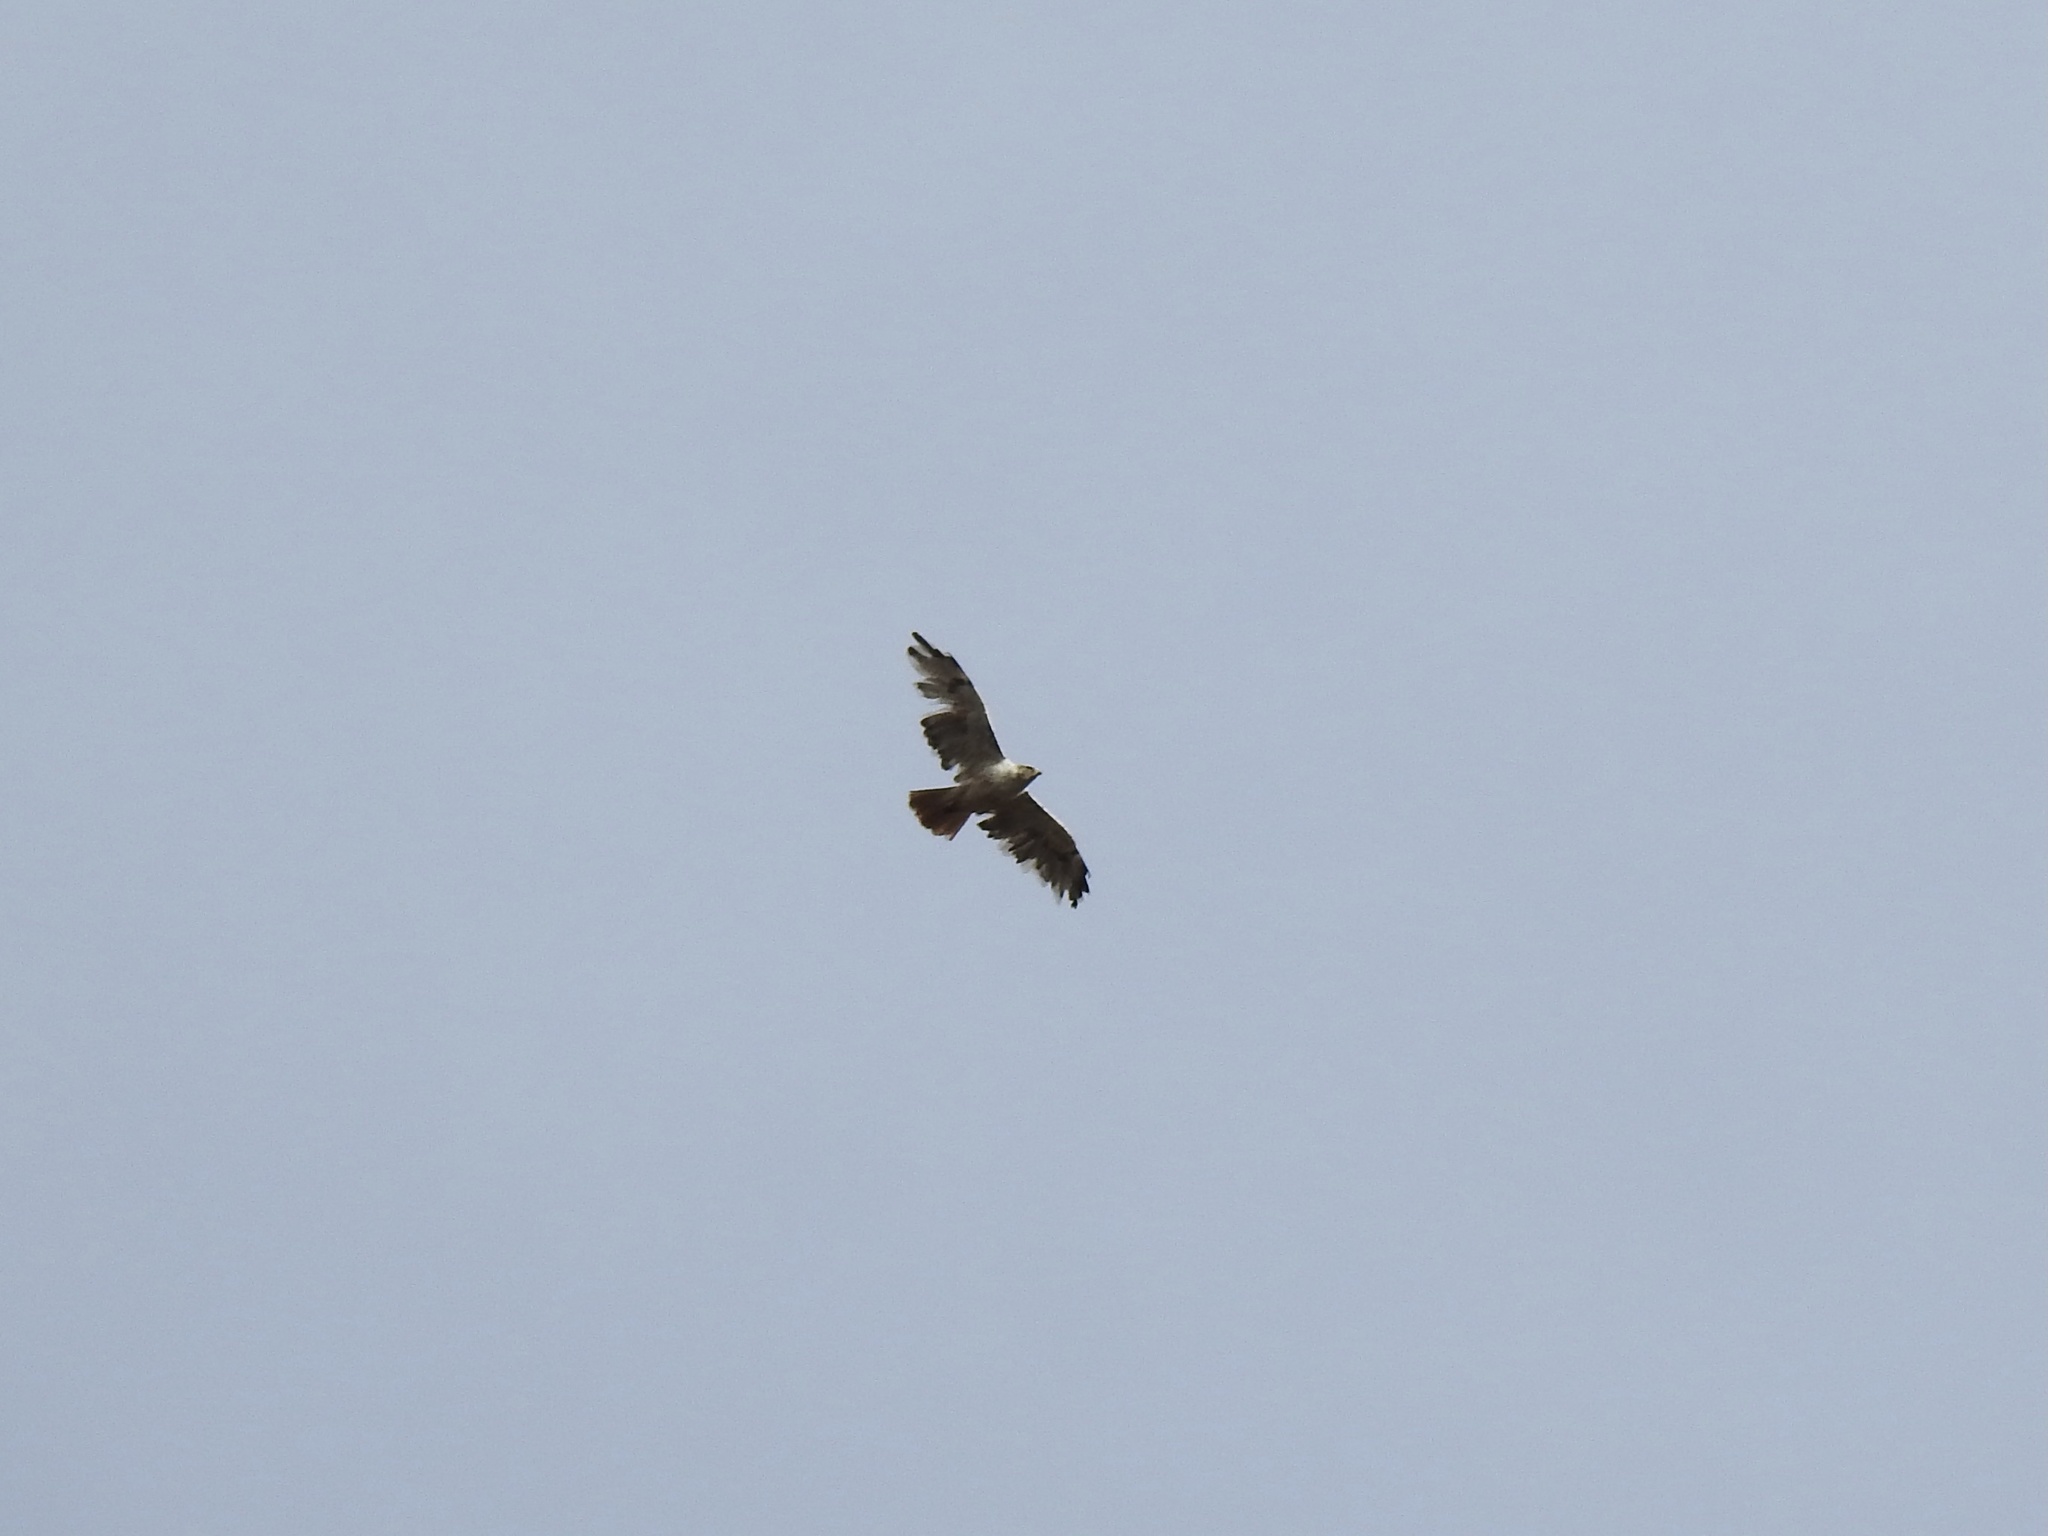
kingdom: Animalia
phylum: Chordata
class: Aves
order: Accipitriformes
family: Accipitridae
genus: Buteo
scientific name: Buteo jamaicensis
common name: Red-tailed hawk
